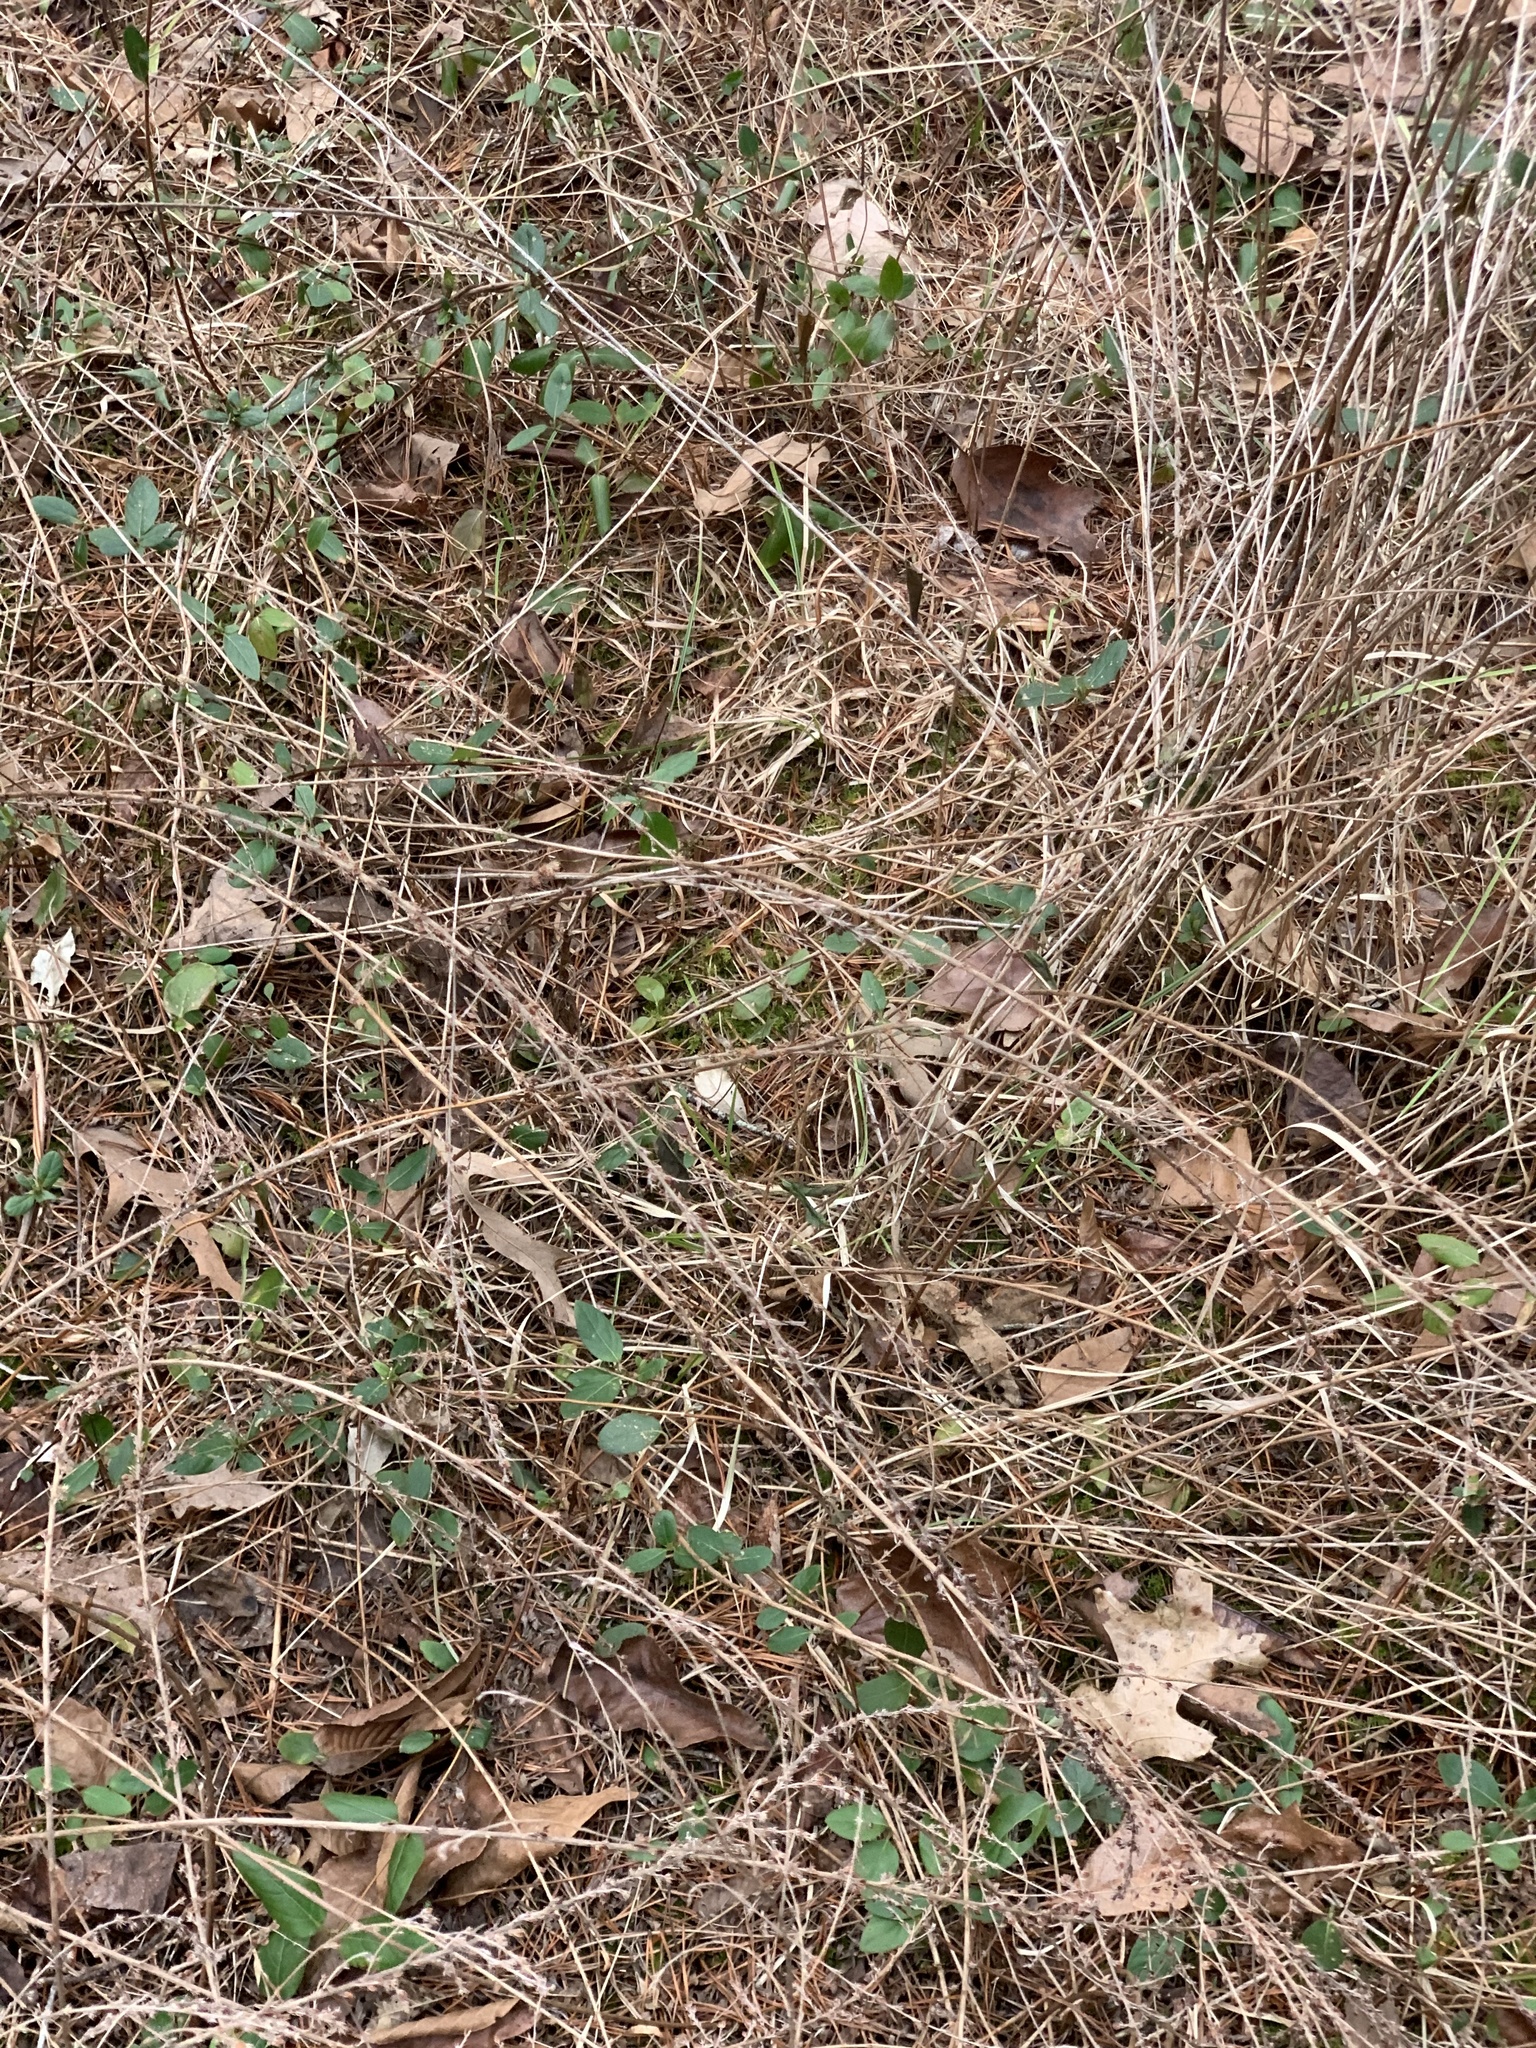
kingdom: Plantae
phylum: Tracheophyta
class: Magnoliopsida
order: Fabales
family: Fabaceae
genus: Lespedeza
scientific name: Lespedeza cuneata
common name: Chinese bush-clover
